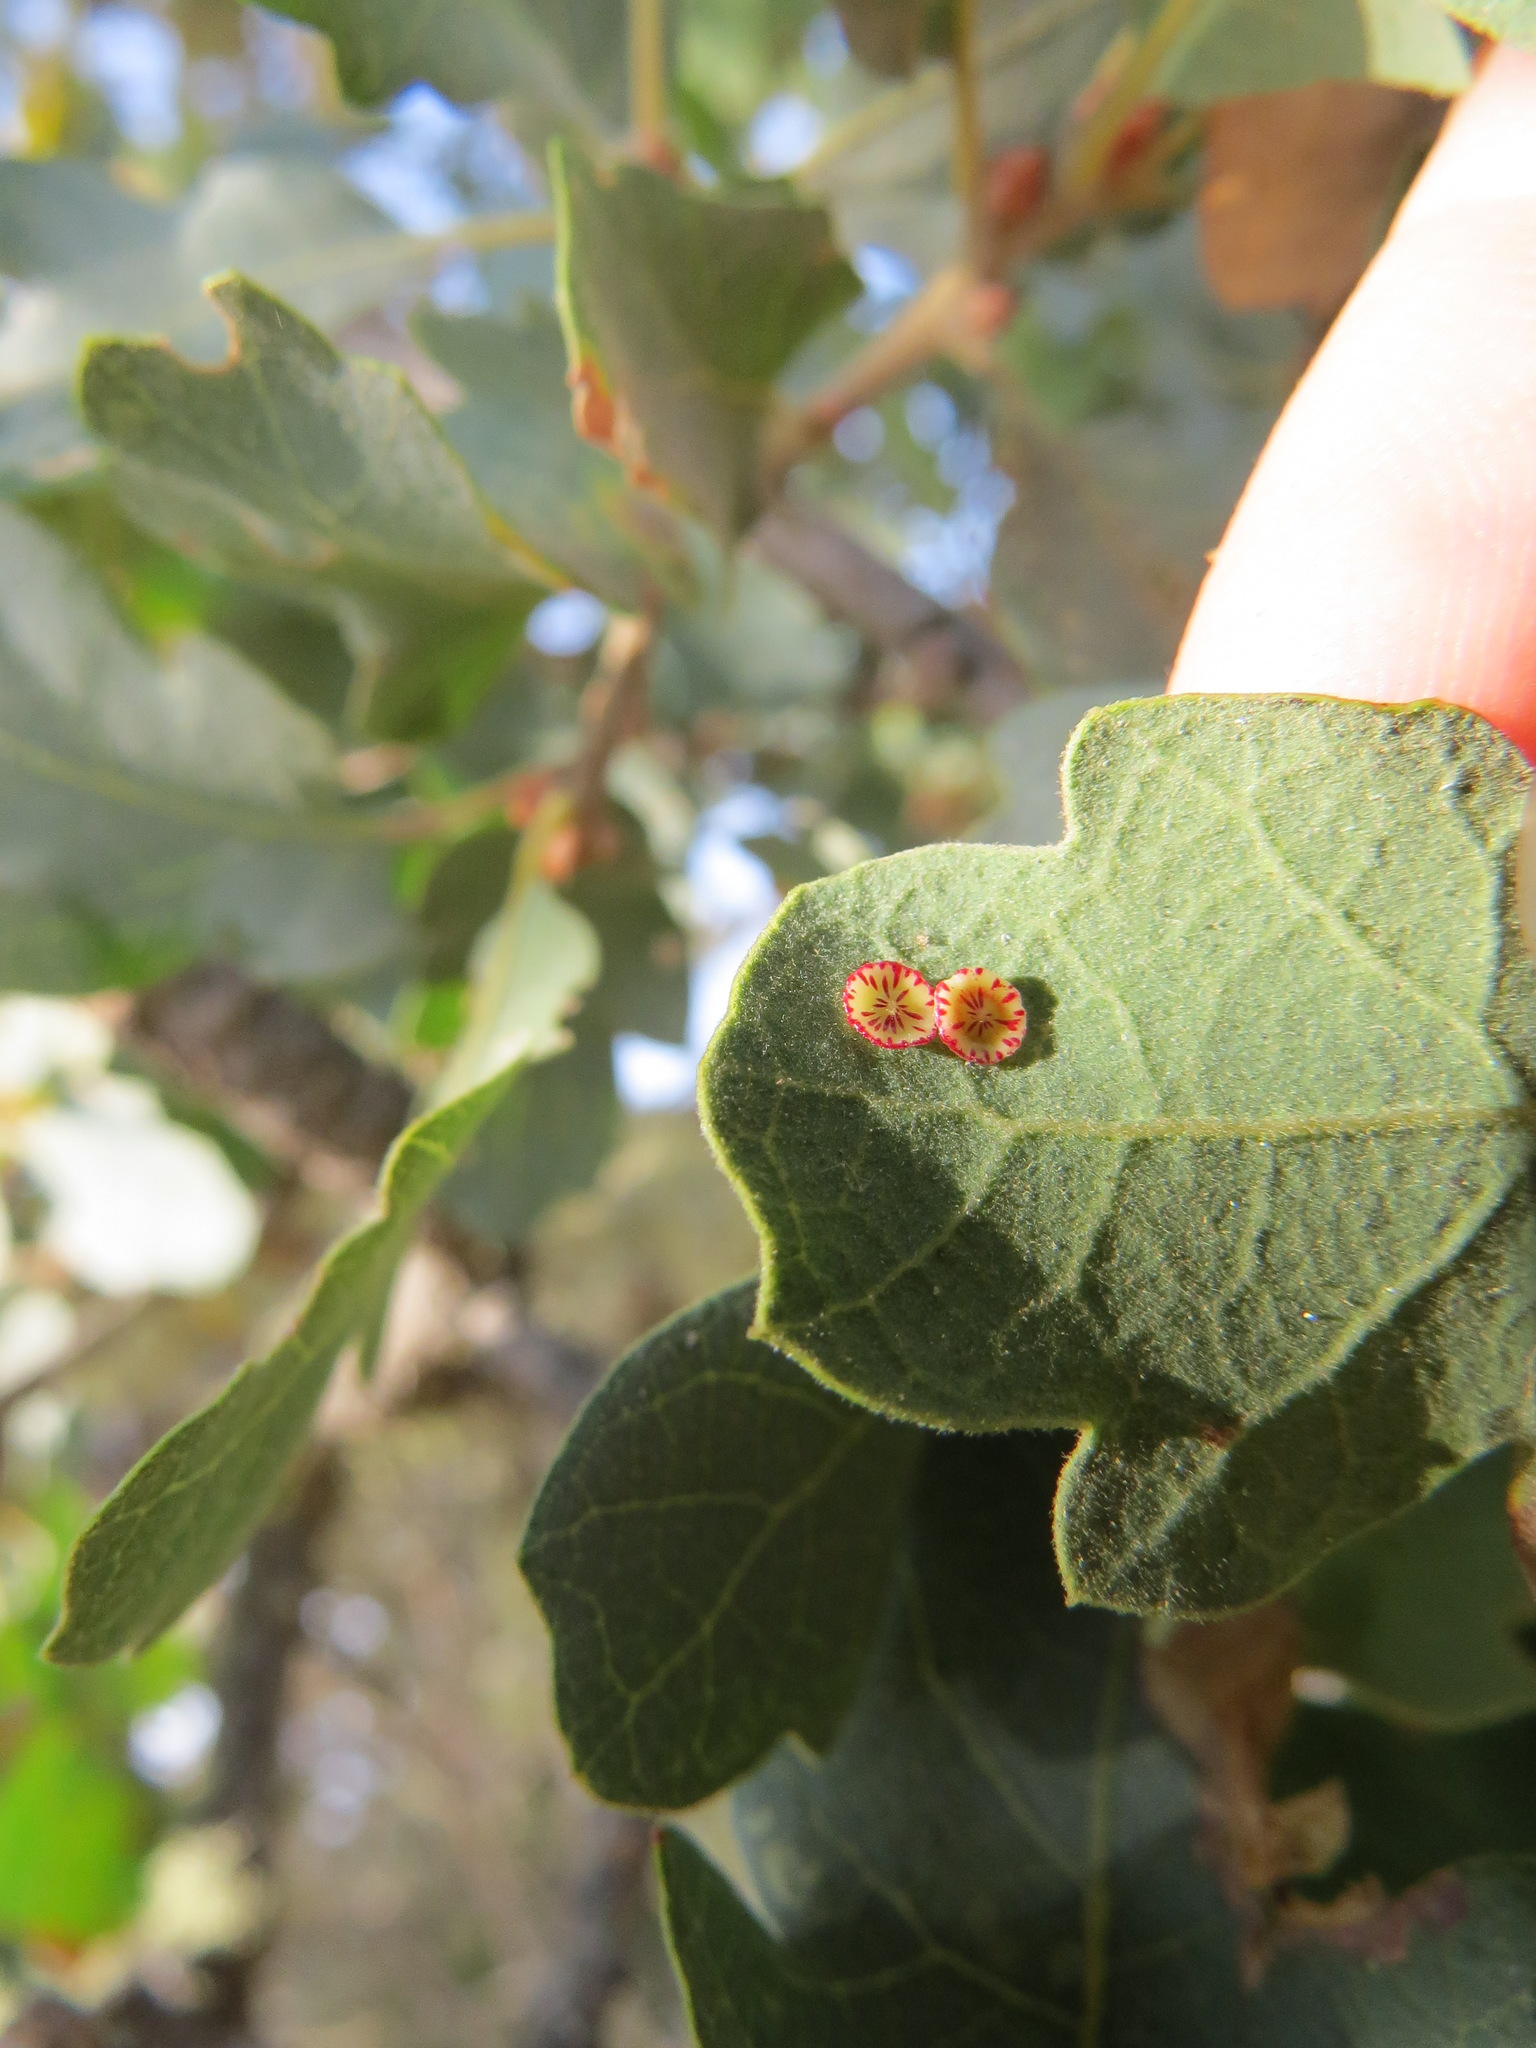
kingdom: Animalia
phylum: Arthropoda
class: Insecta
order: Hymenoptera
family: Cynipidae
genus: Andricus
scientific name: Andricus
